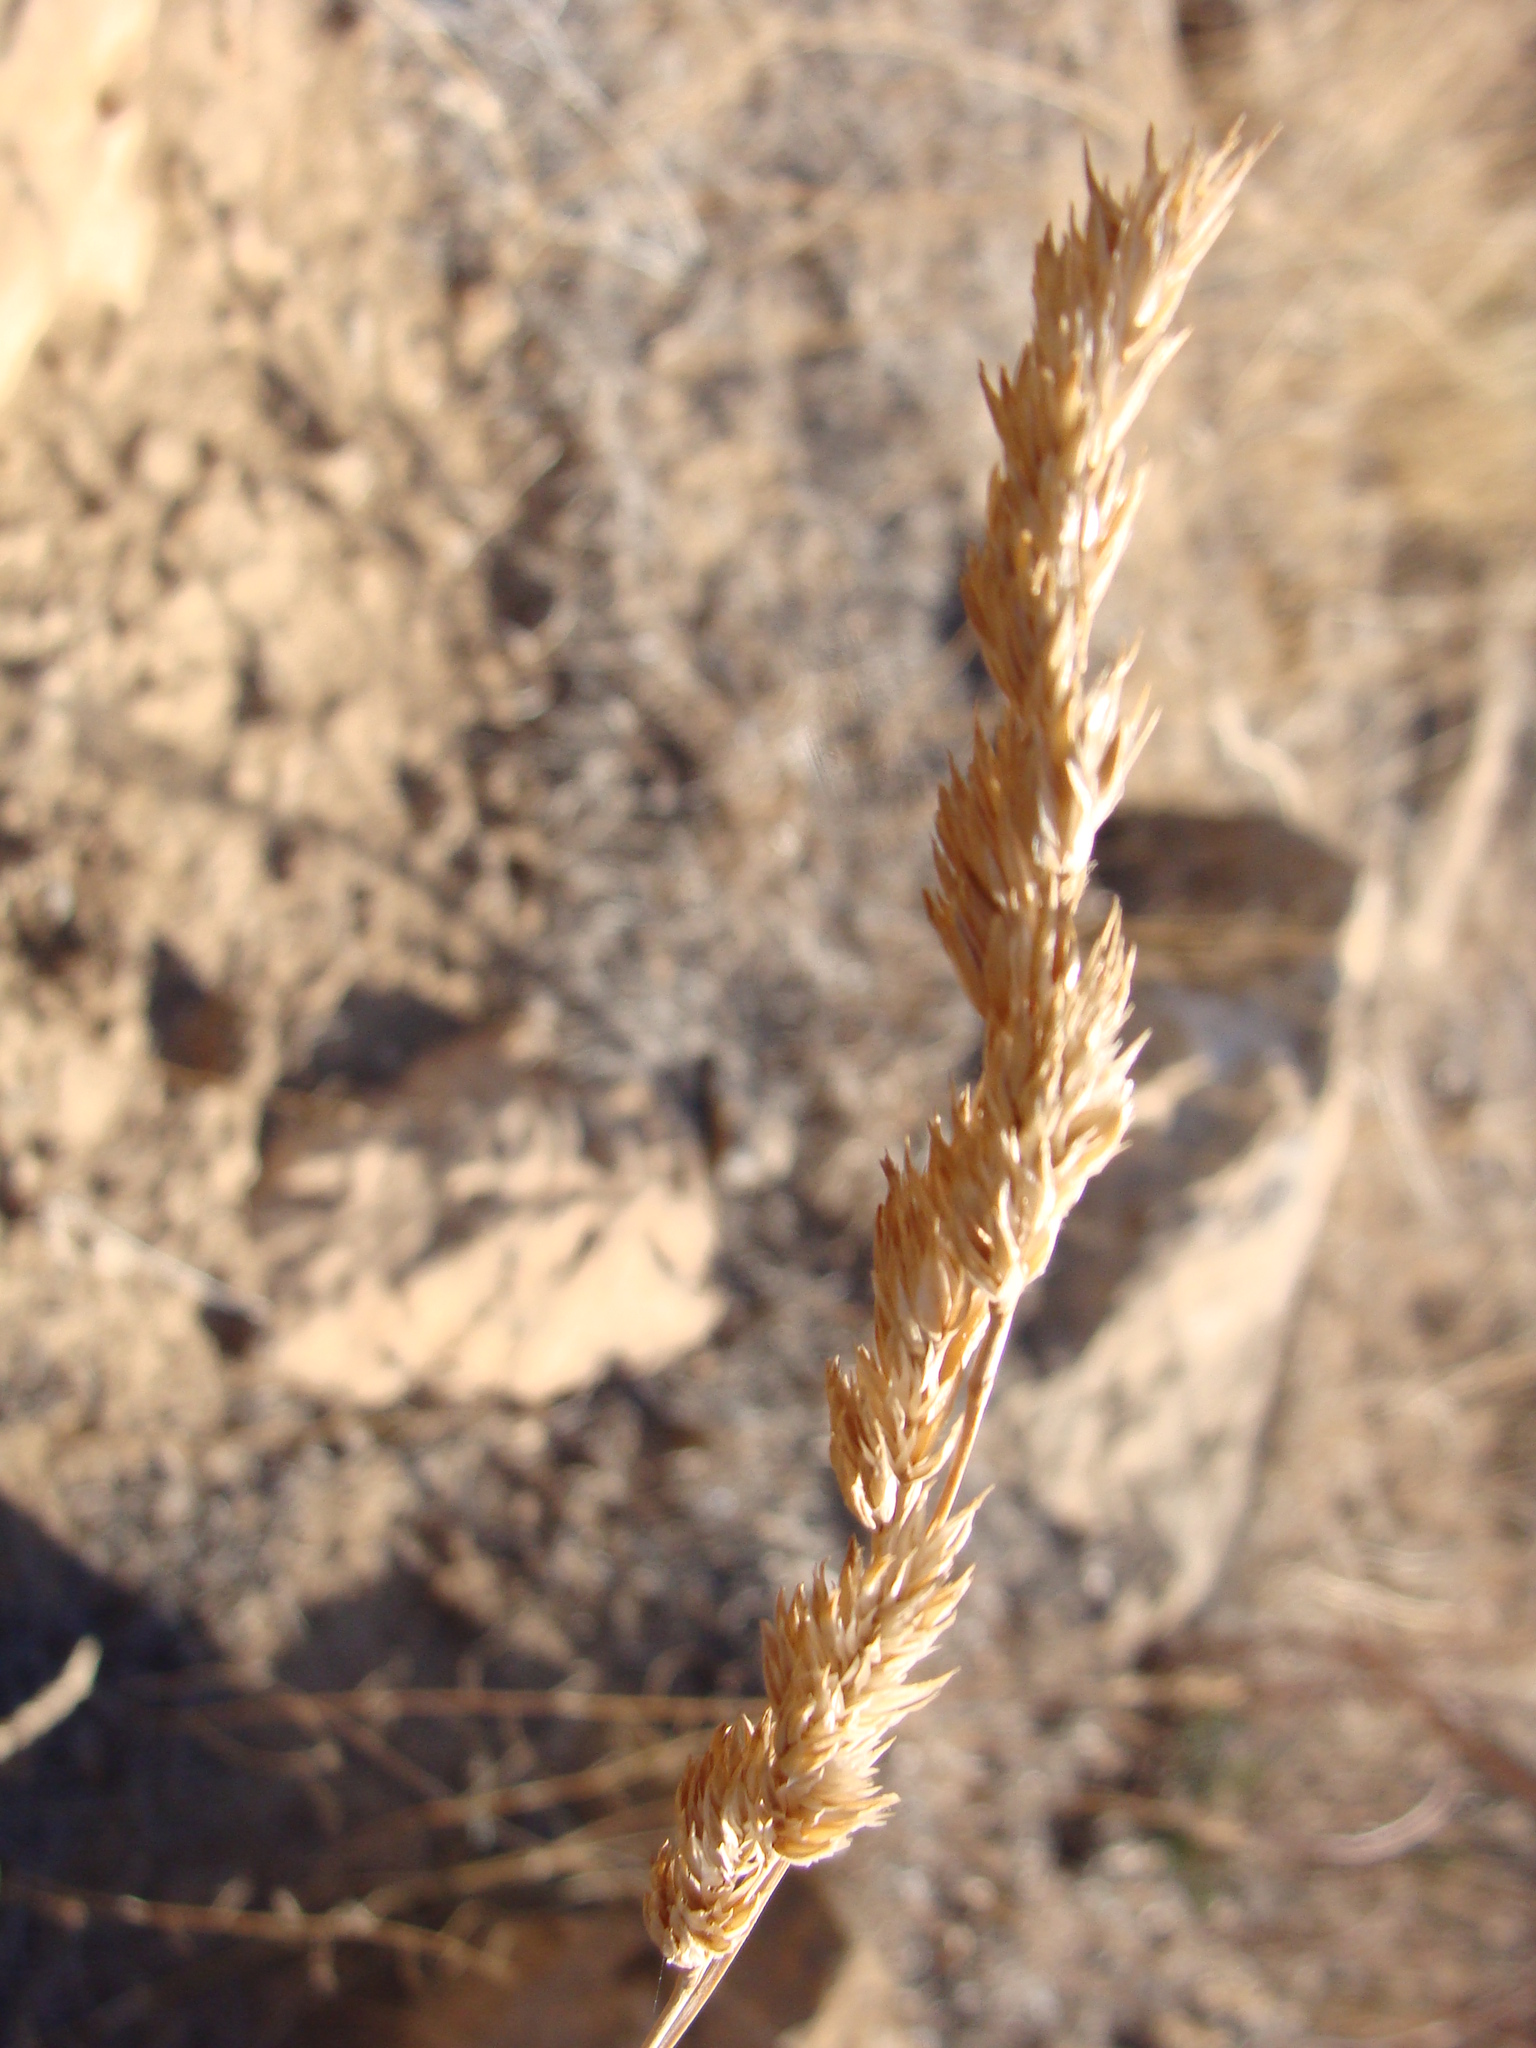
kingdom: Plantae
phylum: Tracheophyta
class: Liliopsida
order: Poales
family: Poaceae
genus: Dactylis
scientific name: Dactylis glomerata
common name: Orchardgrass
